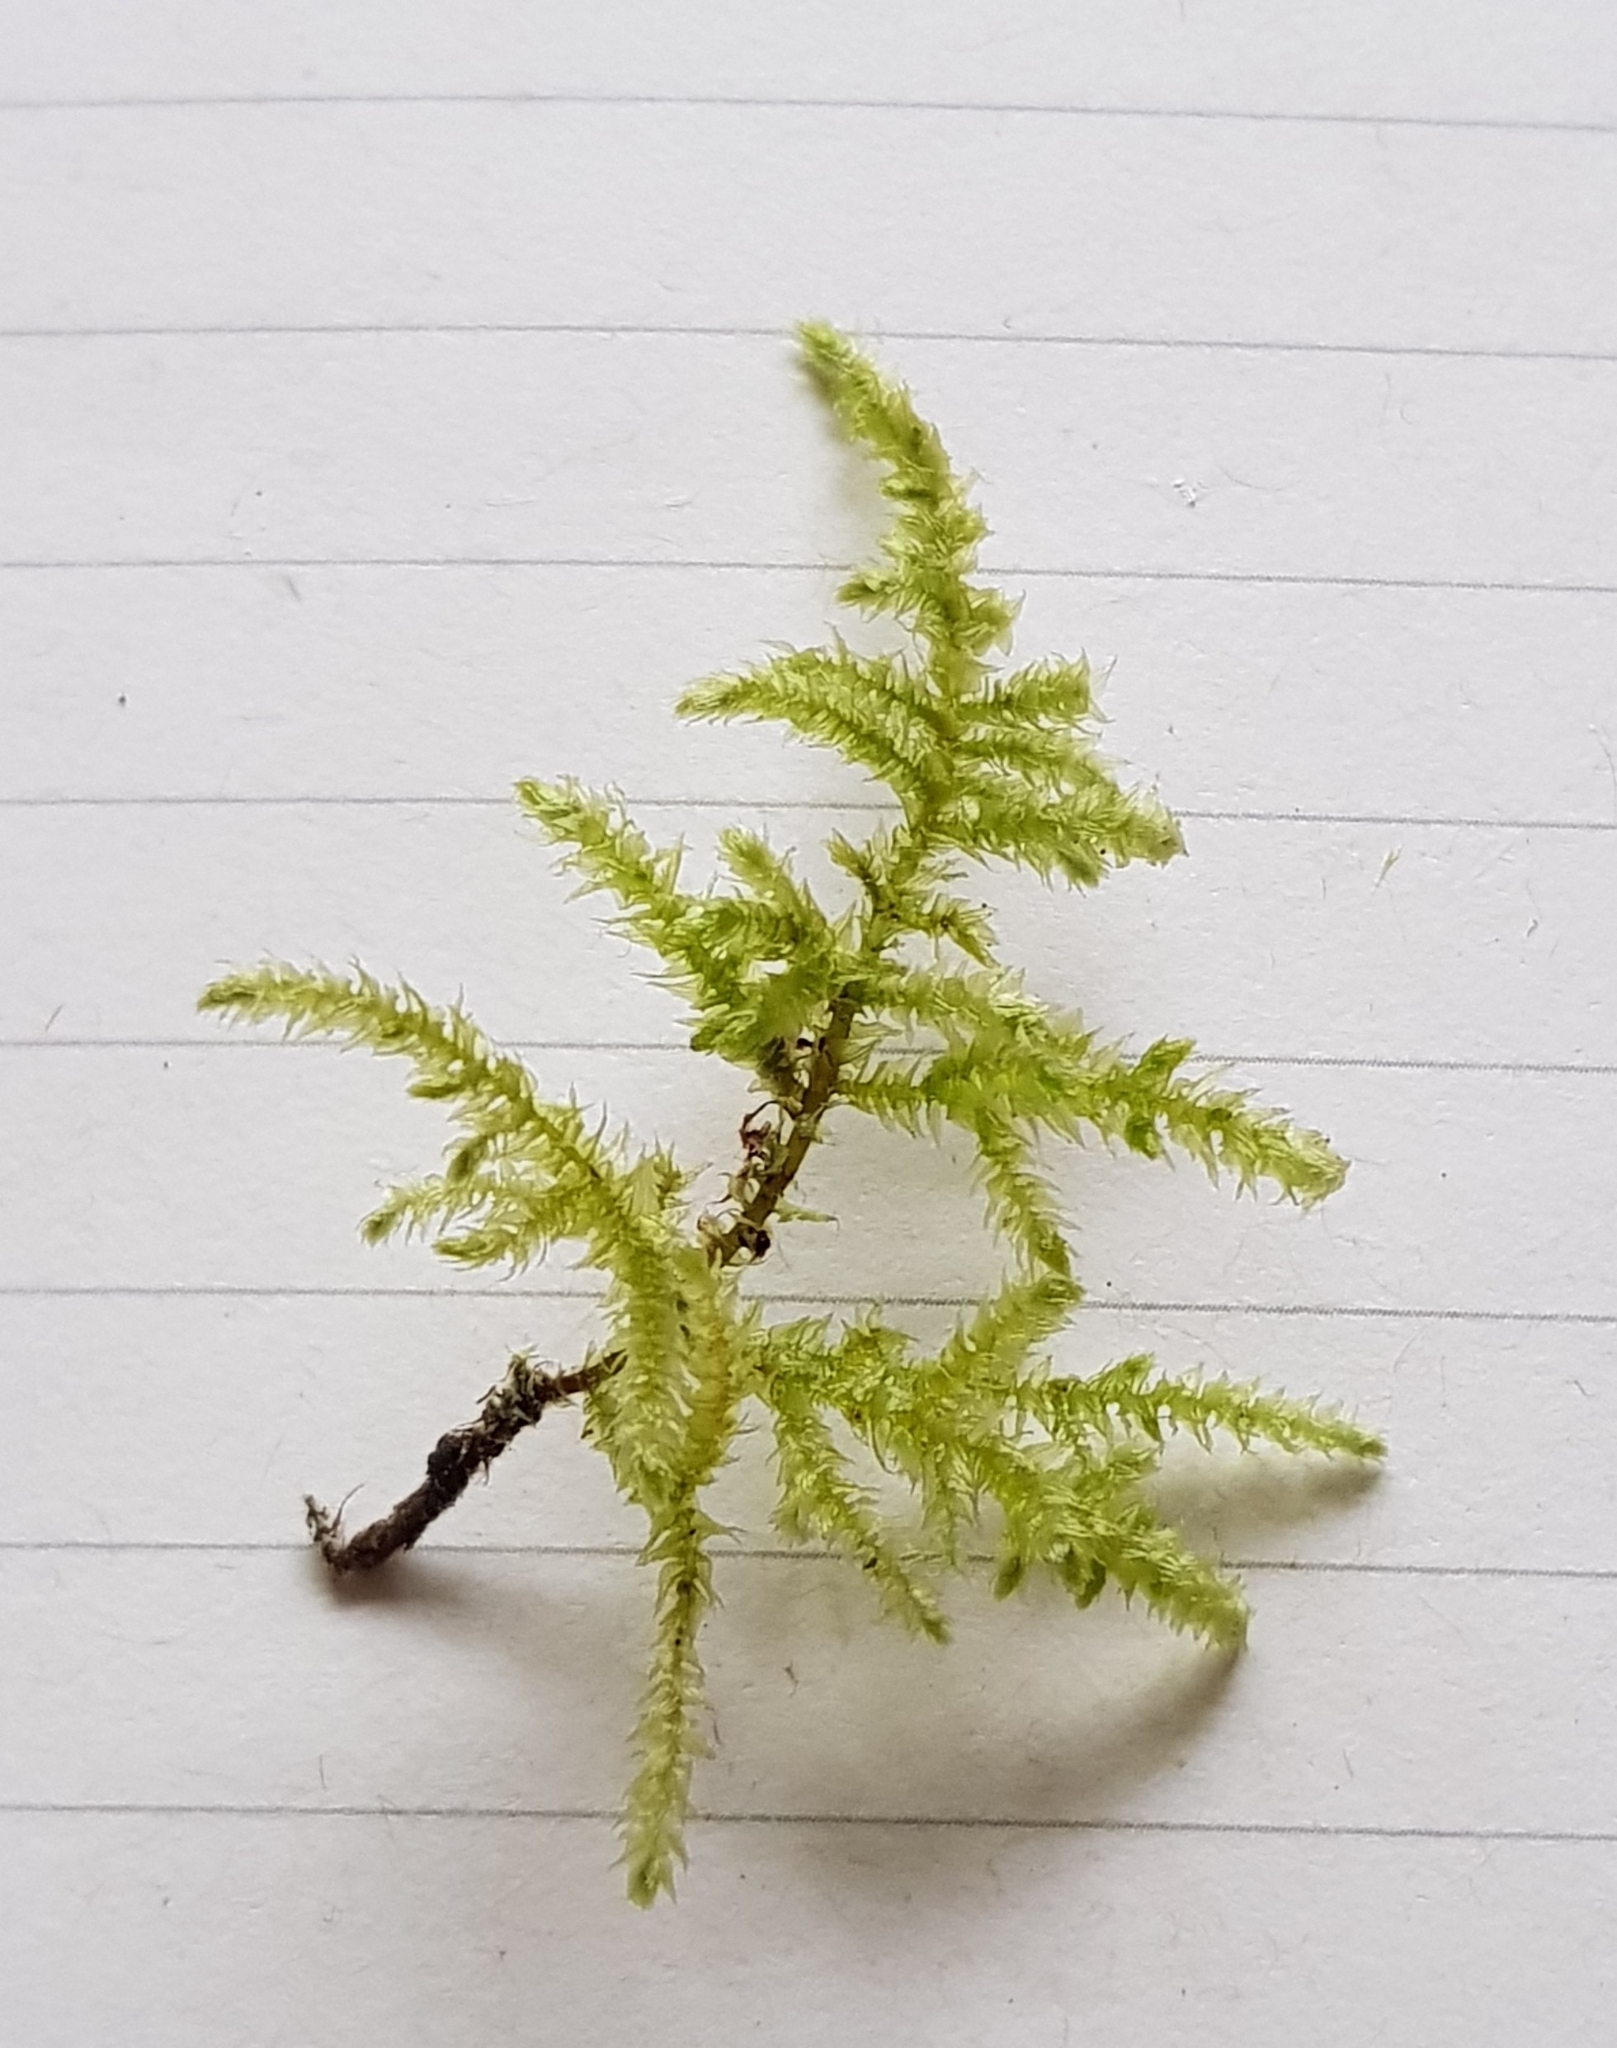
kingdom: Plantae
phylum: Bryophyta
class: Bryopsida
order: Hypnales
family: Brachytheciaceae
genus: Eurhynchium
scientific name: Eurhynchium striatum
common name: Common striated feather-moss
